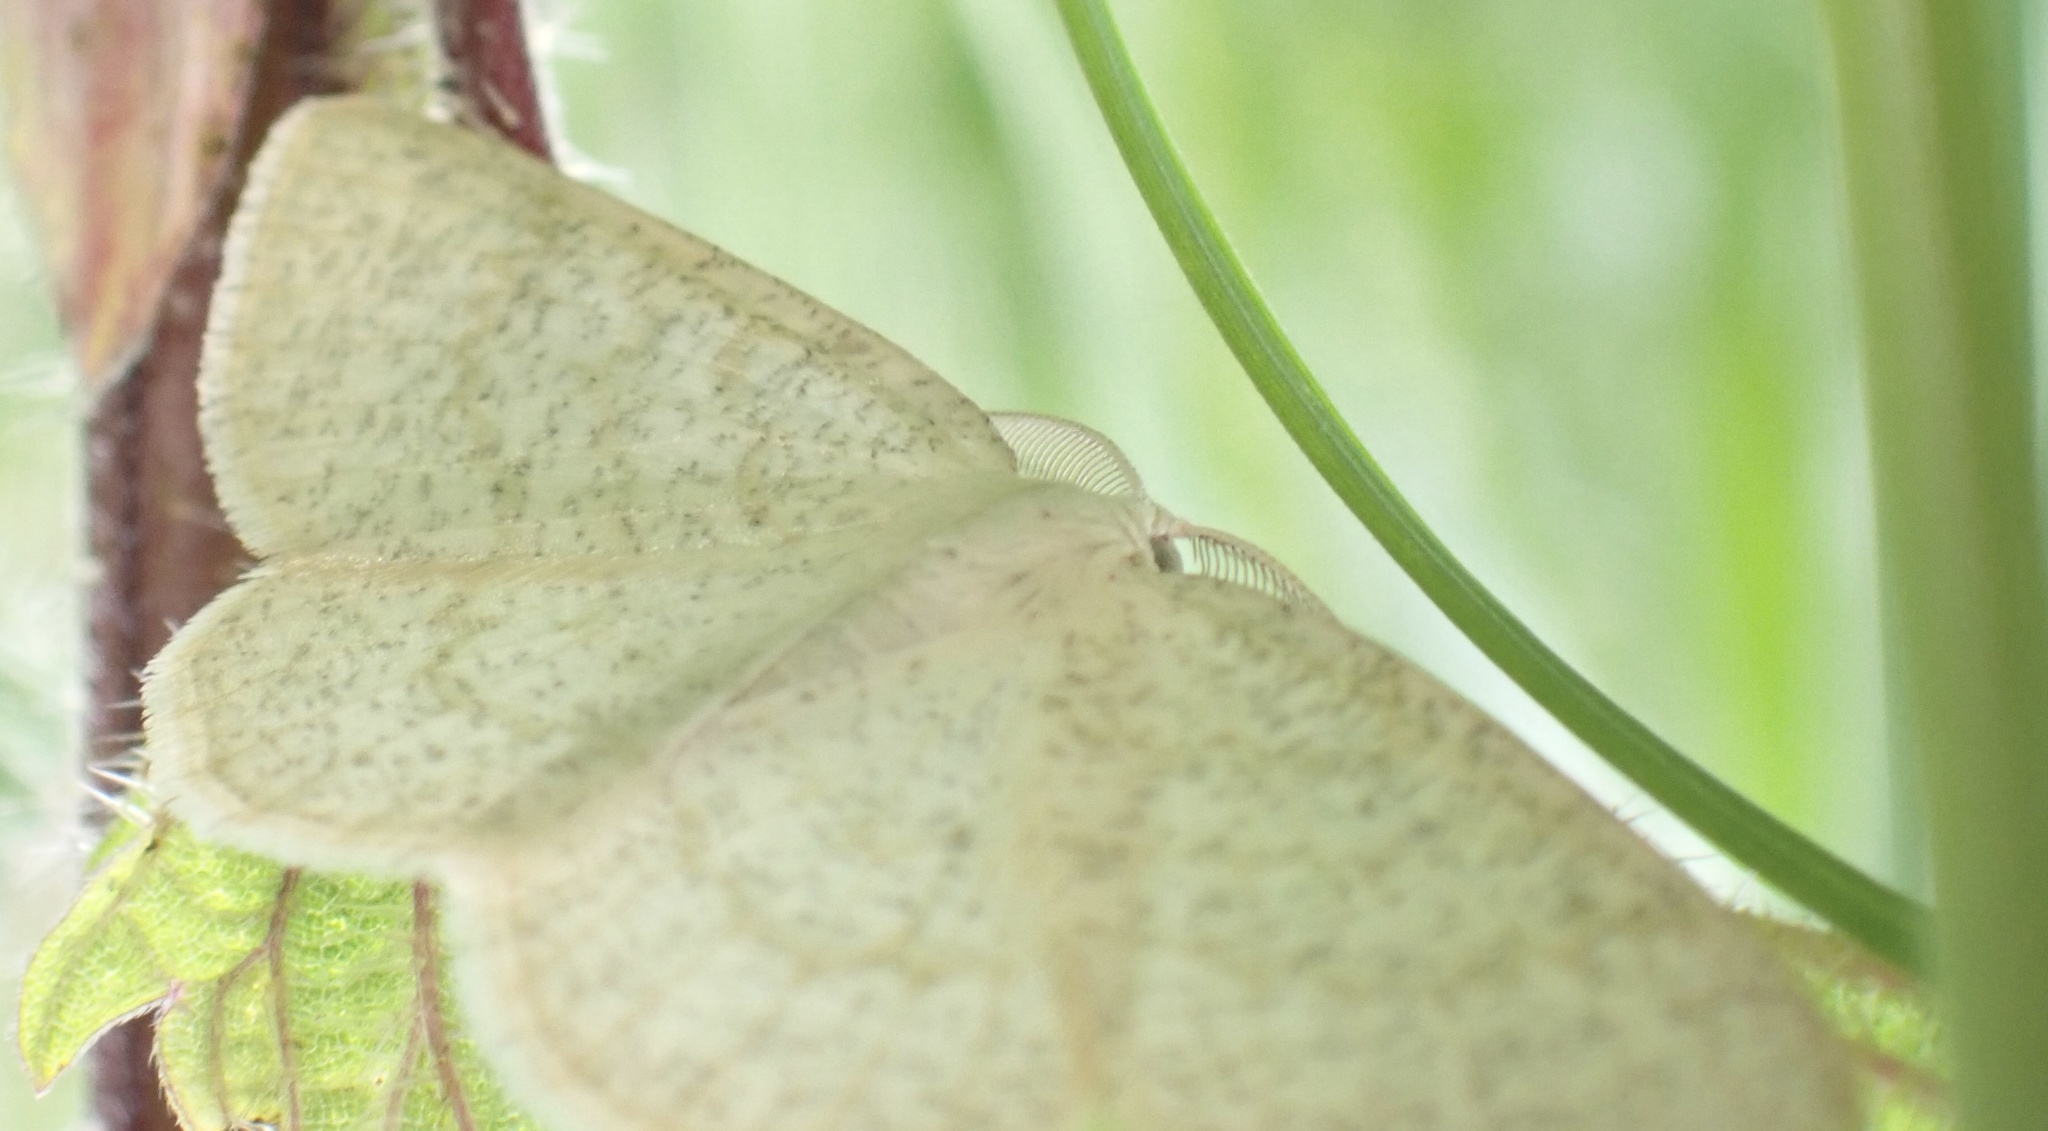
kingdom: Animalia
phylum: Arthropoda
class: Insecta
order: Lepidoptera
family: Geometridae
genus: Cabera
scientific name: Cabera exanthemata
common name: Common wave
